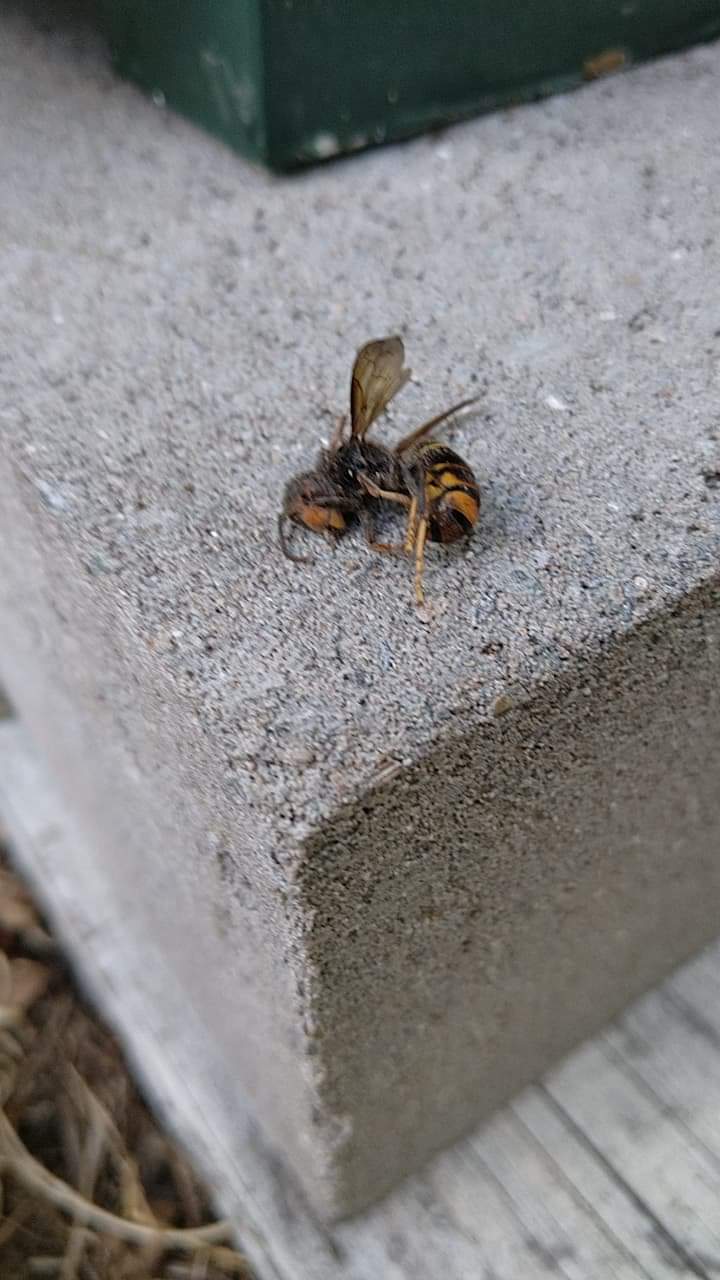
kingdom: Animalia
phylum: Arthropoda
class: Insecta
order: Hymenoptera
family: Vespidae
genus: Vespa
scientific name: Vespa velutina
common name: Asian hornet
